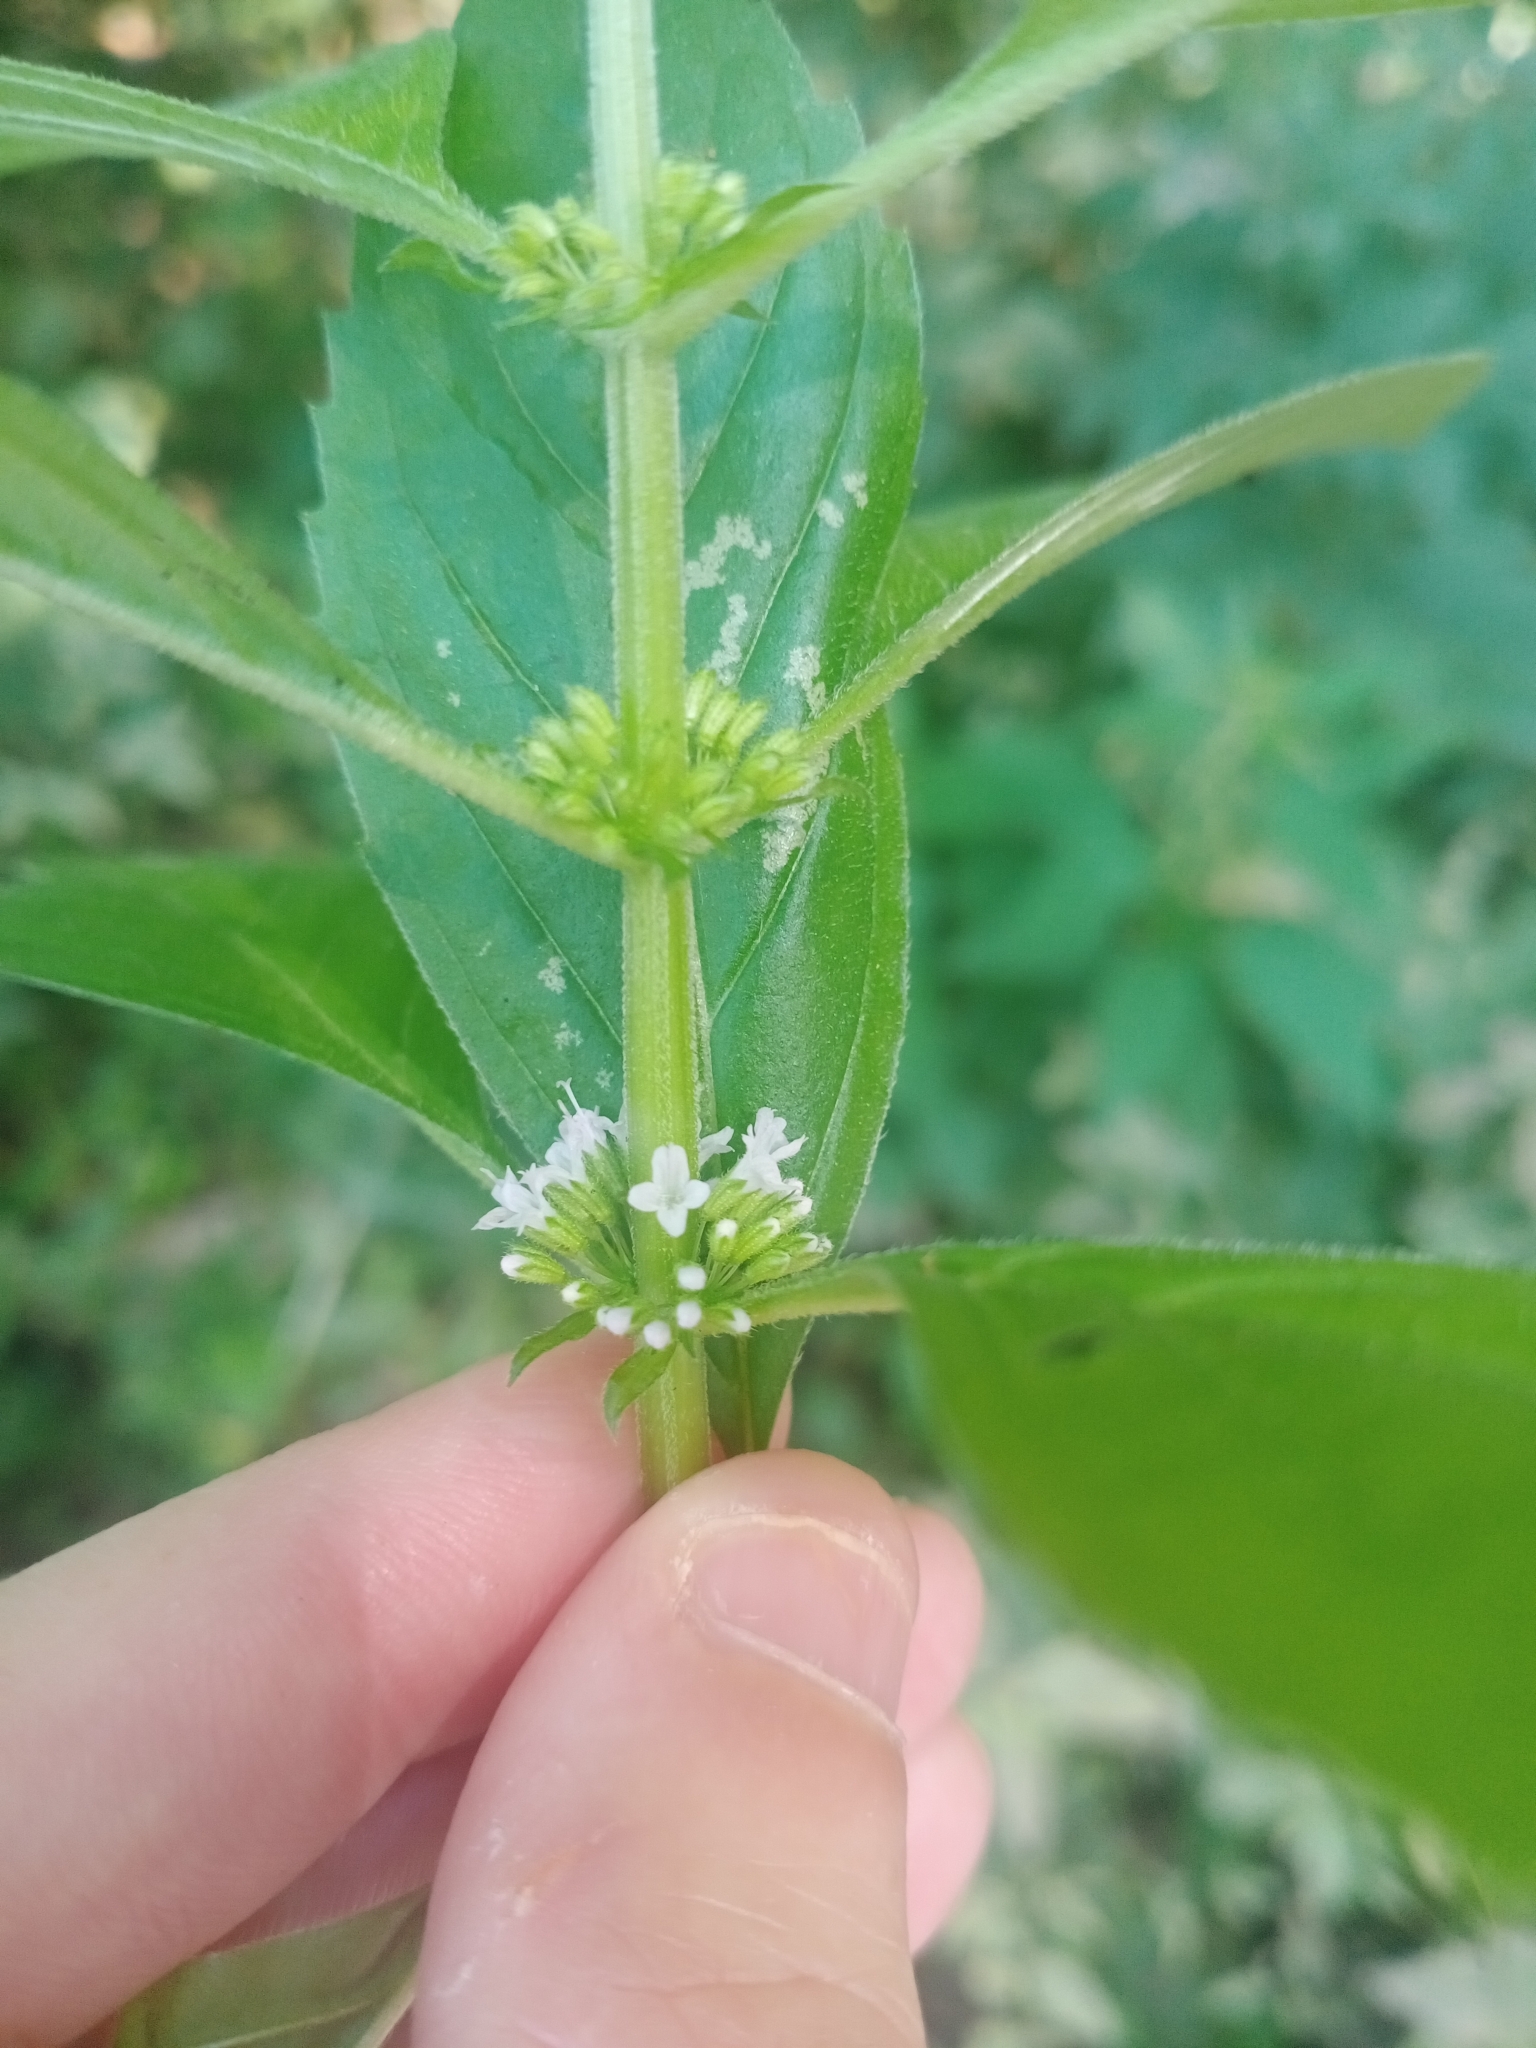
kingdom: Plantae
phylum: Tracheophyta
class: Magnoliopsida
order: Lamiales
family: Lamiaceae
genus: Mentha
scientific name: Mentha arvensis
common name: Corn mint
